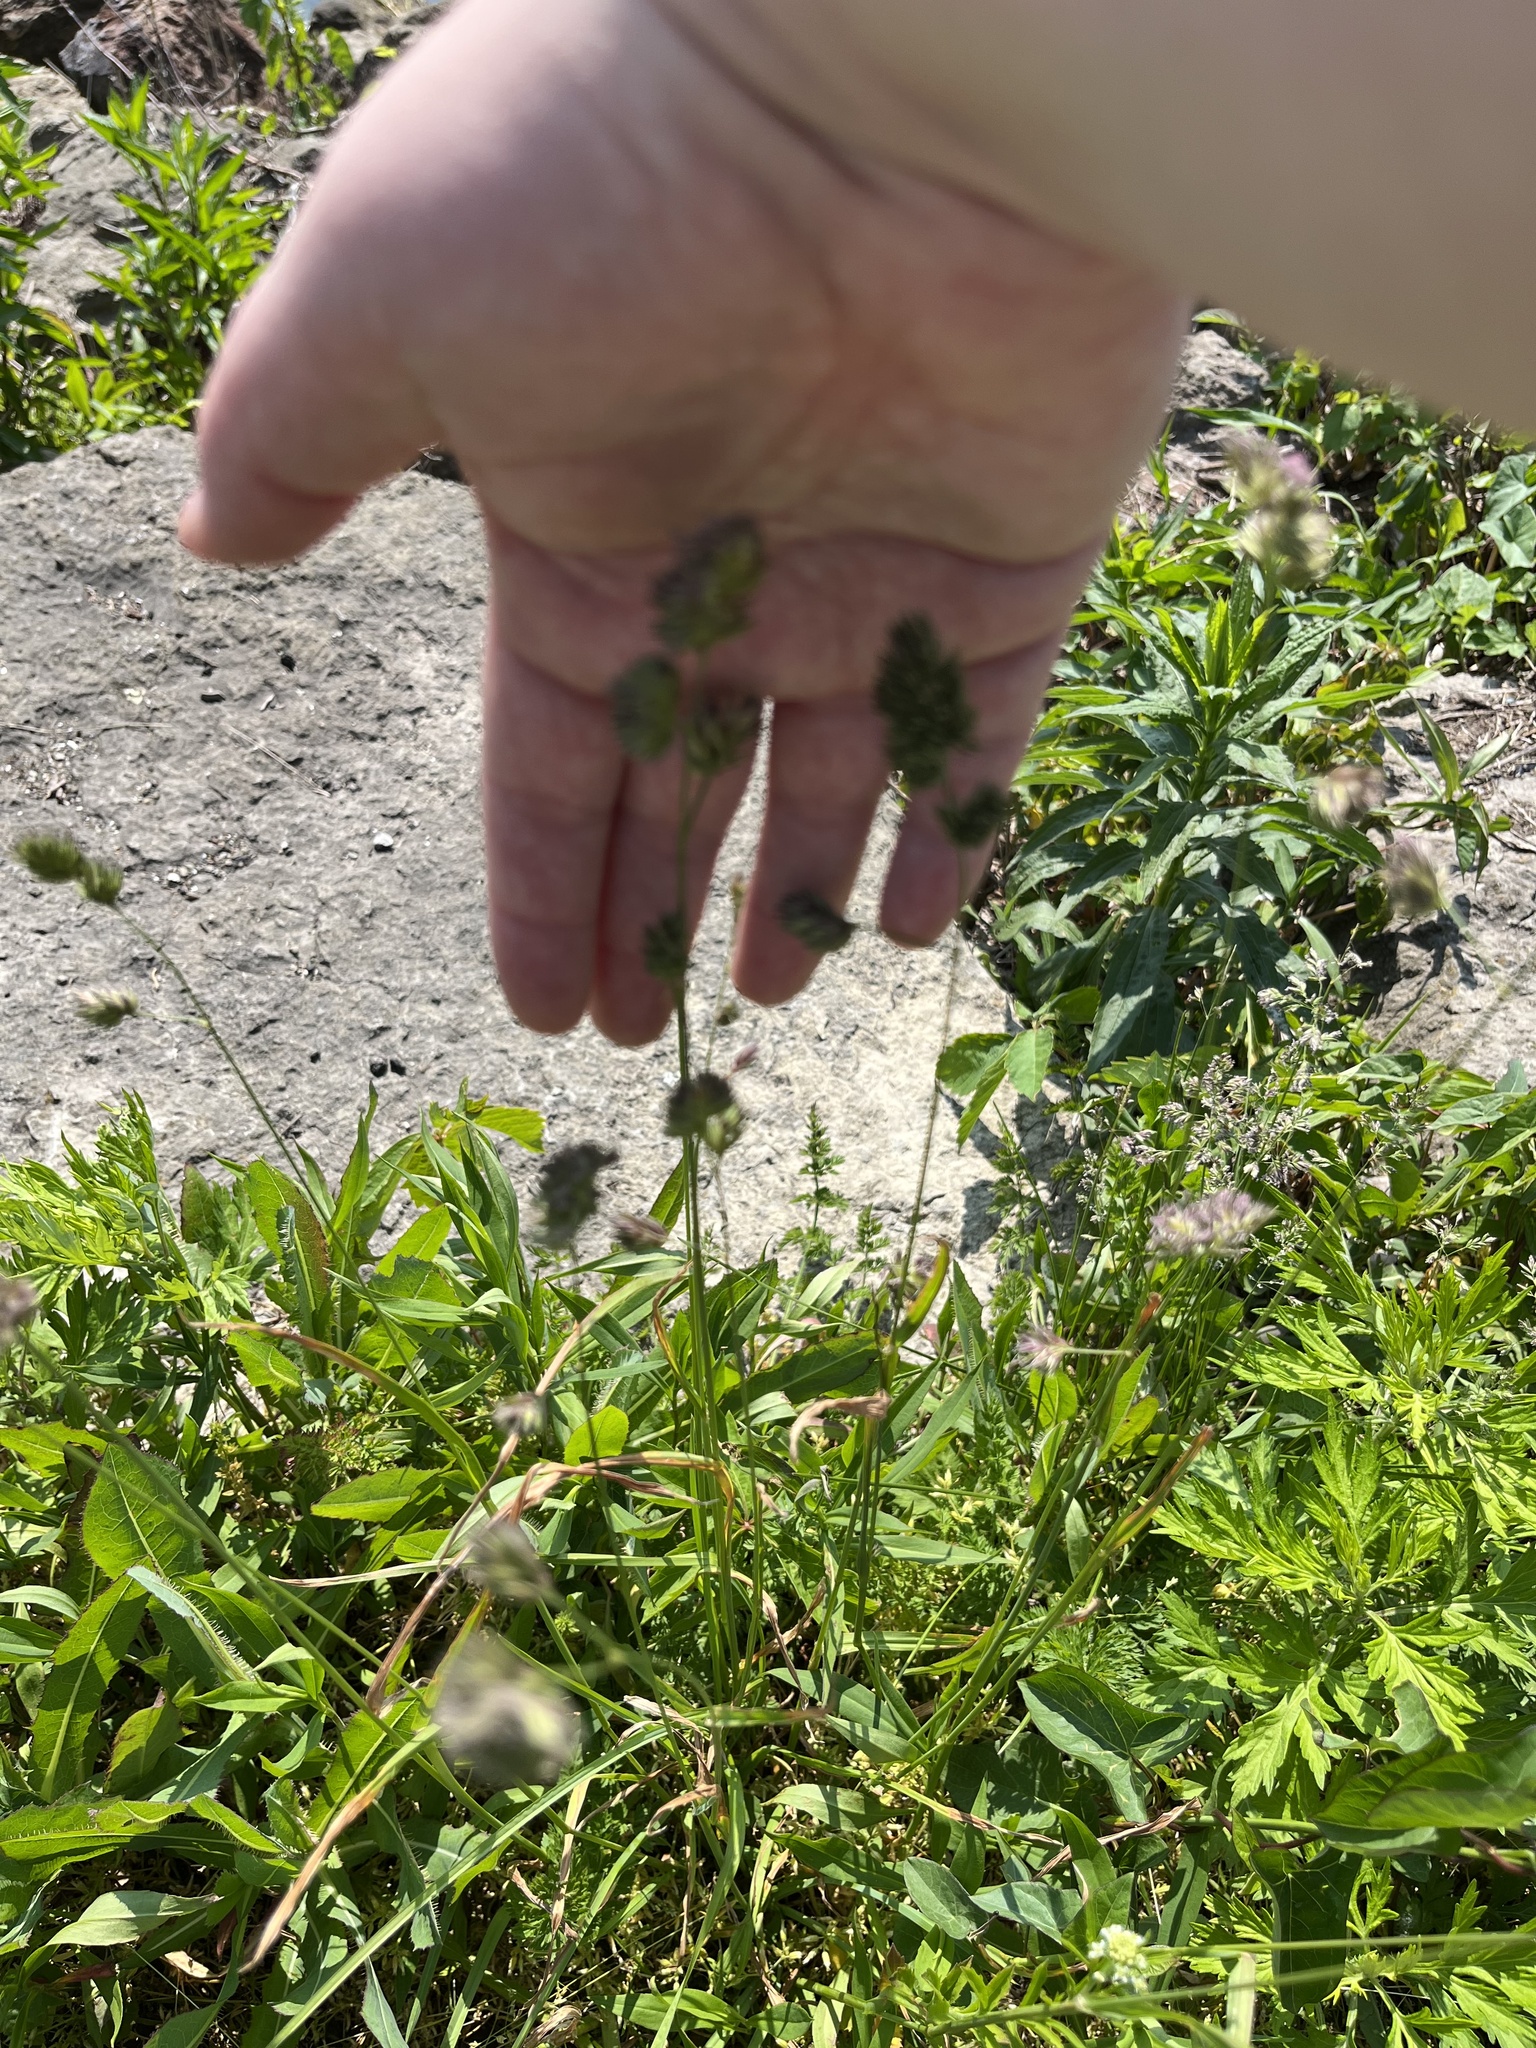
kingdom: Plantae
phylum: Tracheophyta
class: Liliopsida
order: Poales
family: Poaceae
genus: Dactylis
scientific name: Dactylis glomerata
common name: Orchardgrass
